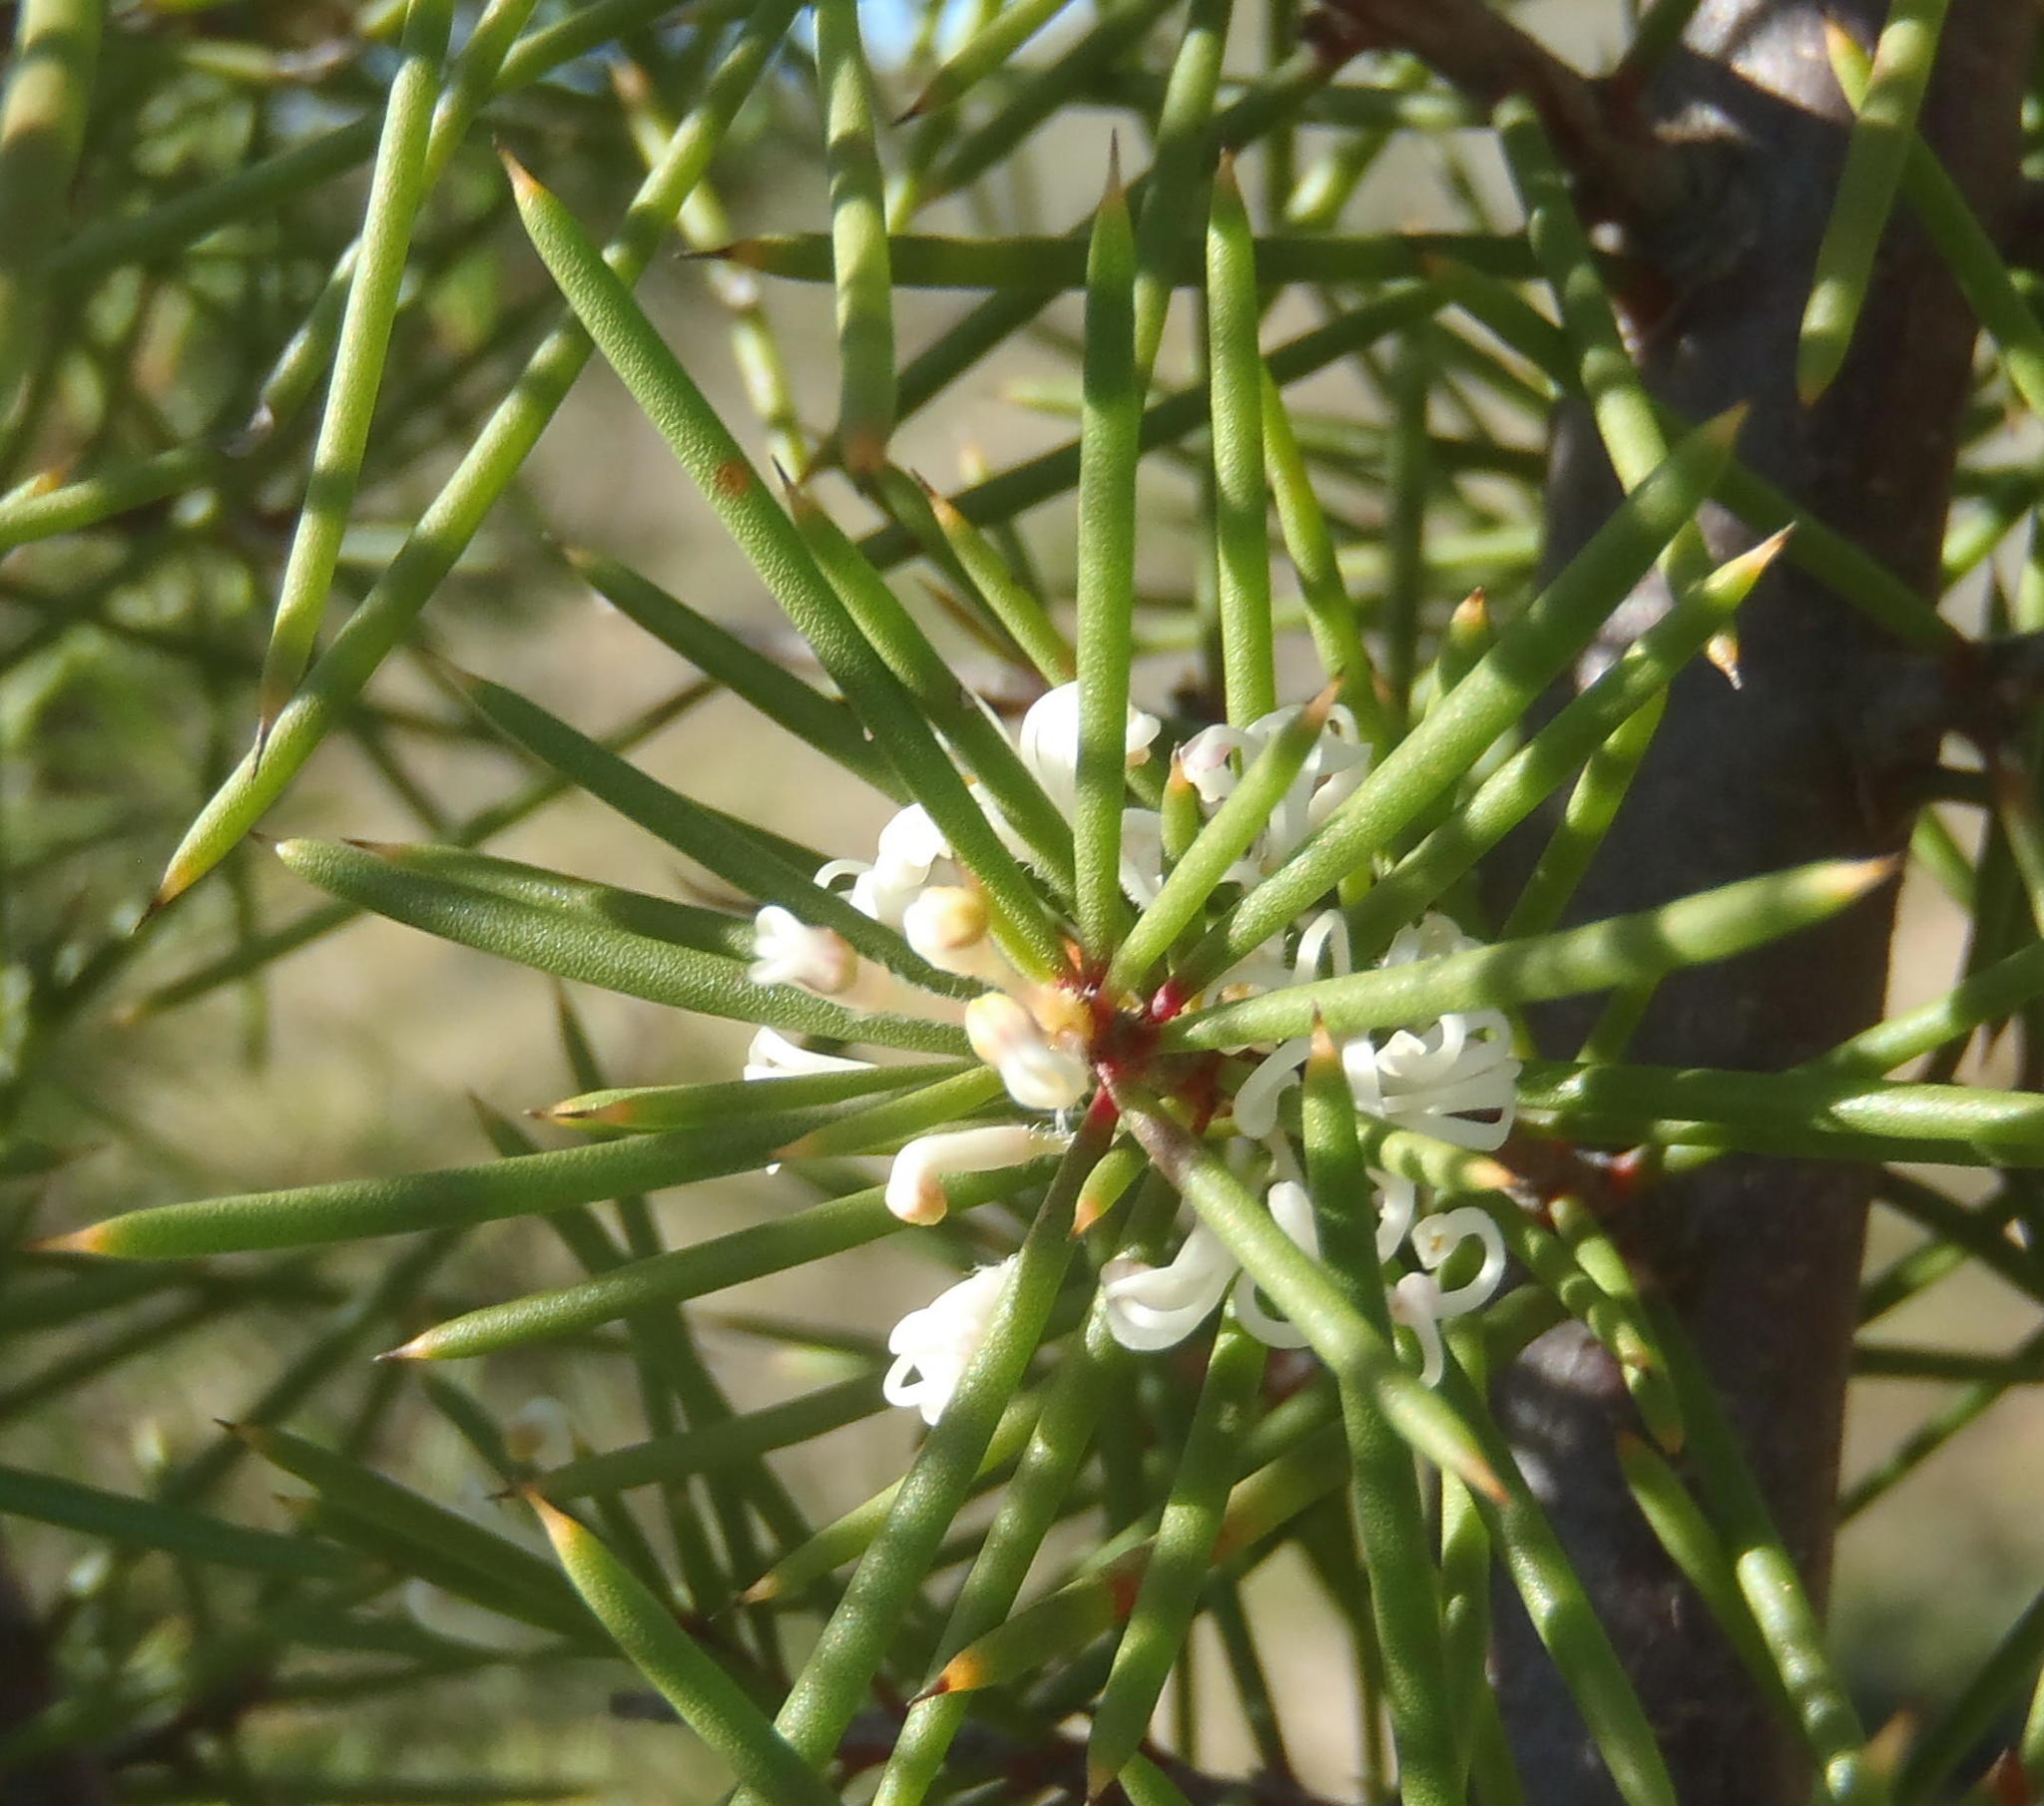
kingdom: Plantae
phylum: Tracheophyta
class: Magnoliopsida
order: Proteales
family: Proteaceae
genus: Hakea
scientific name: Hakea sericea
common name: Needle bush
